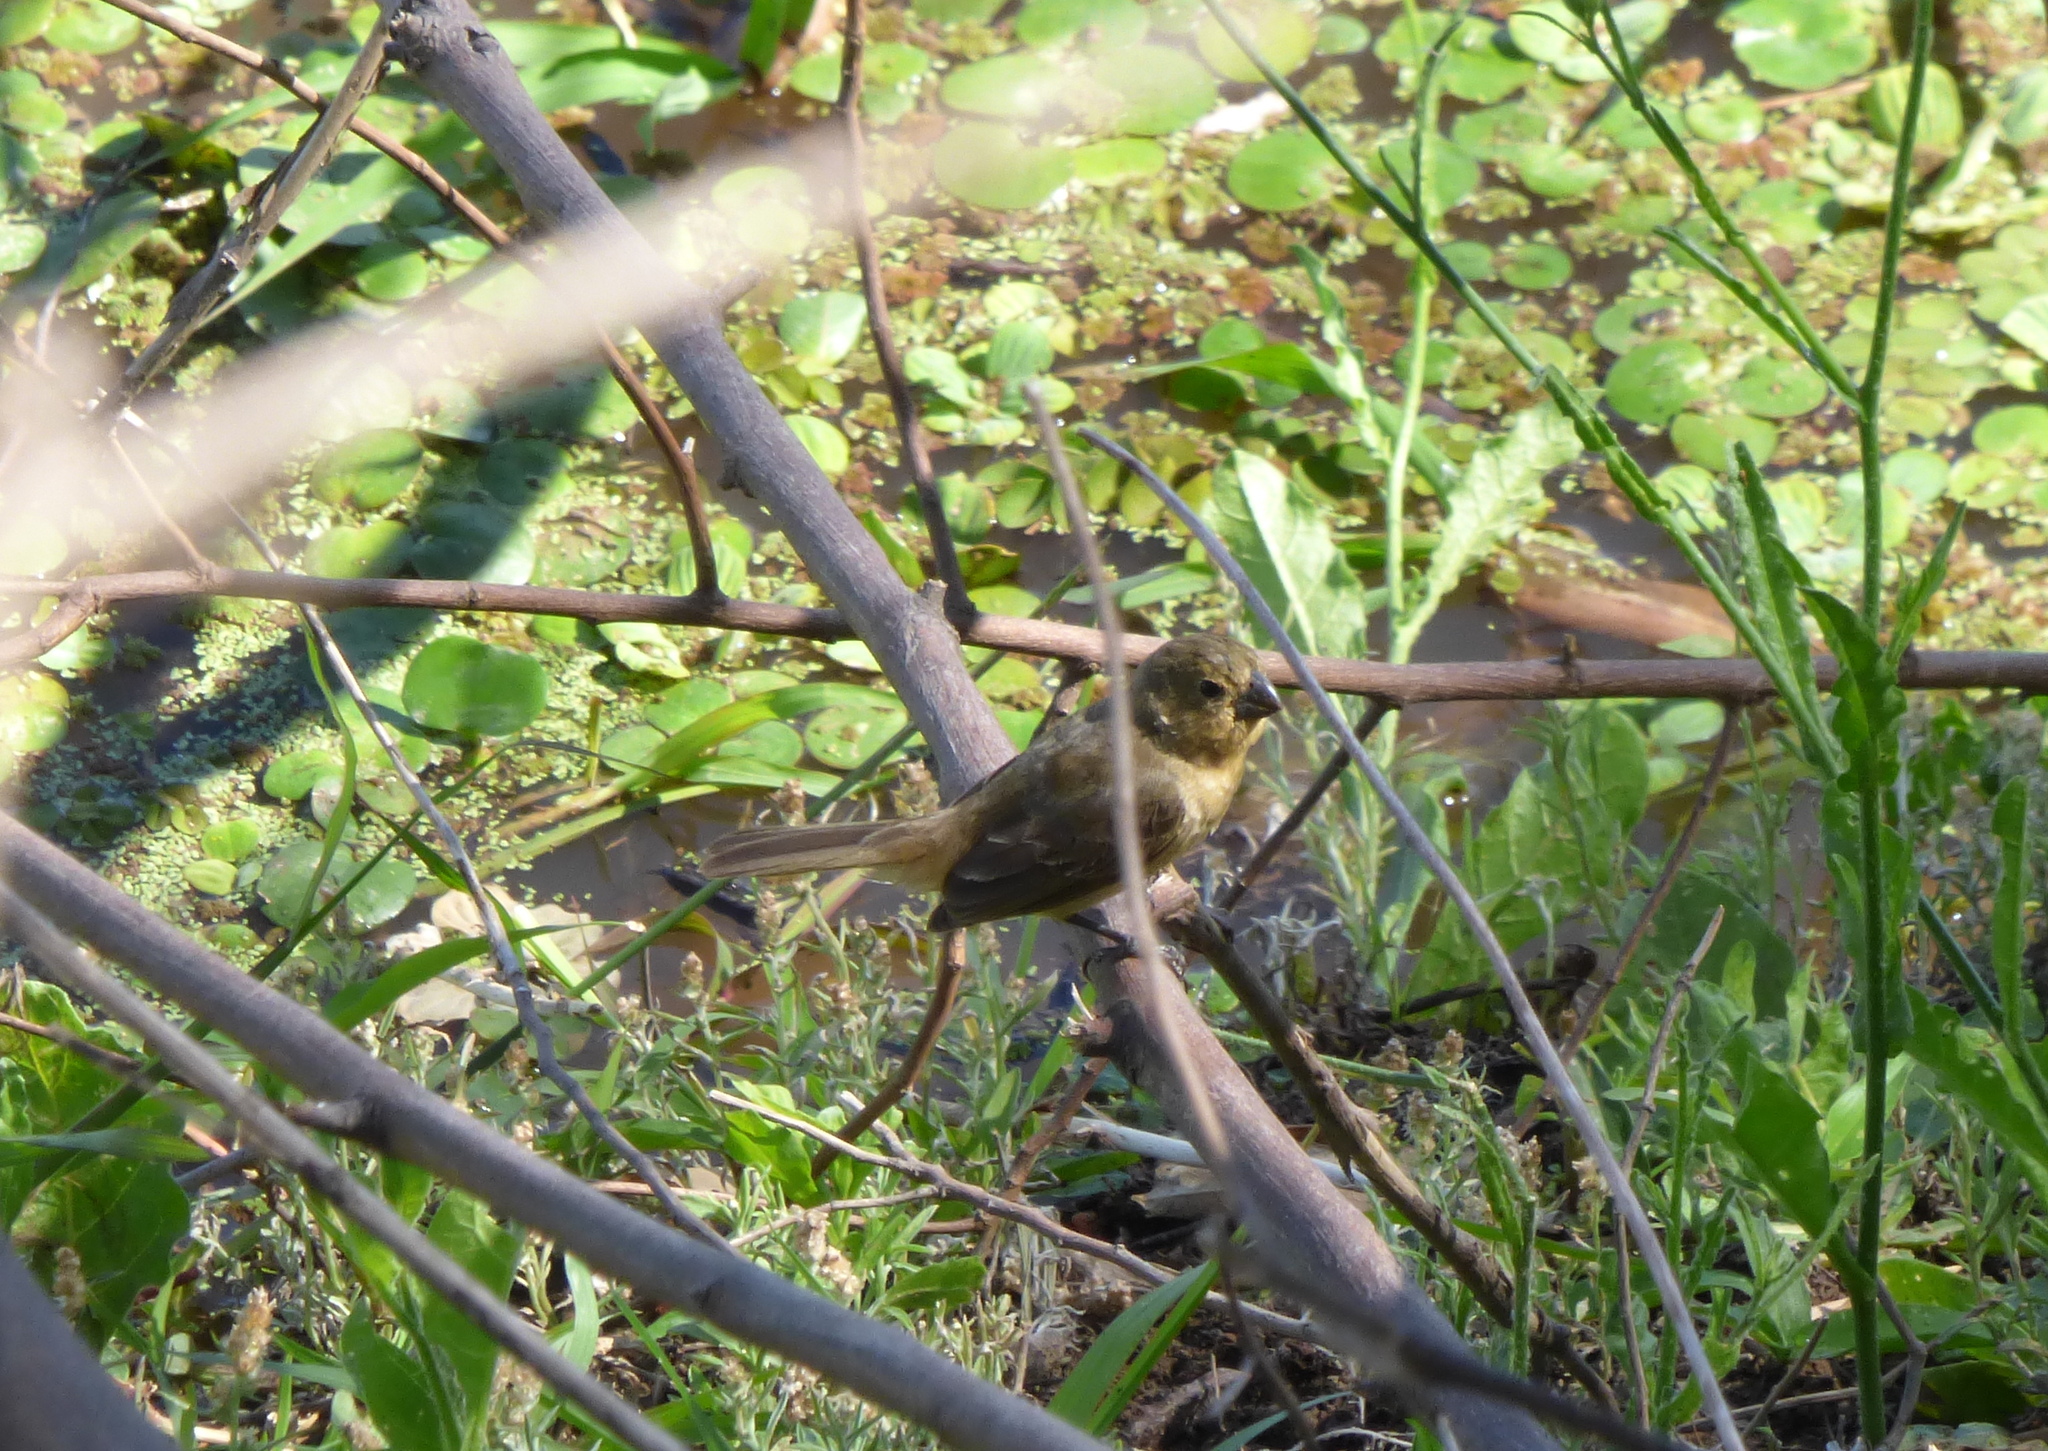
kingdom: Animalia
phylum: Chordata
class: Aves
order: Passeriformes
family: Thraupidae
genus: Sporophila
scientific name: Sporophila leucoptera
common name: White-bellied seedeater
